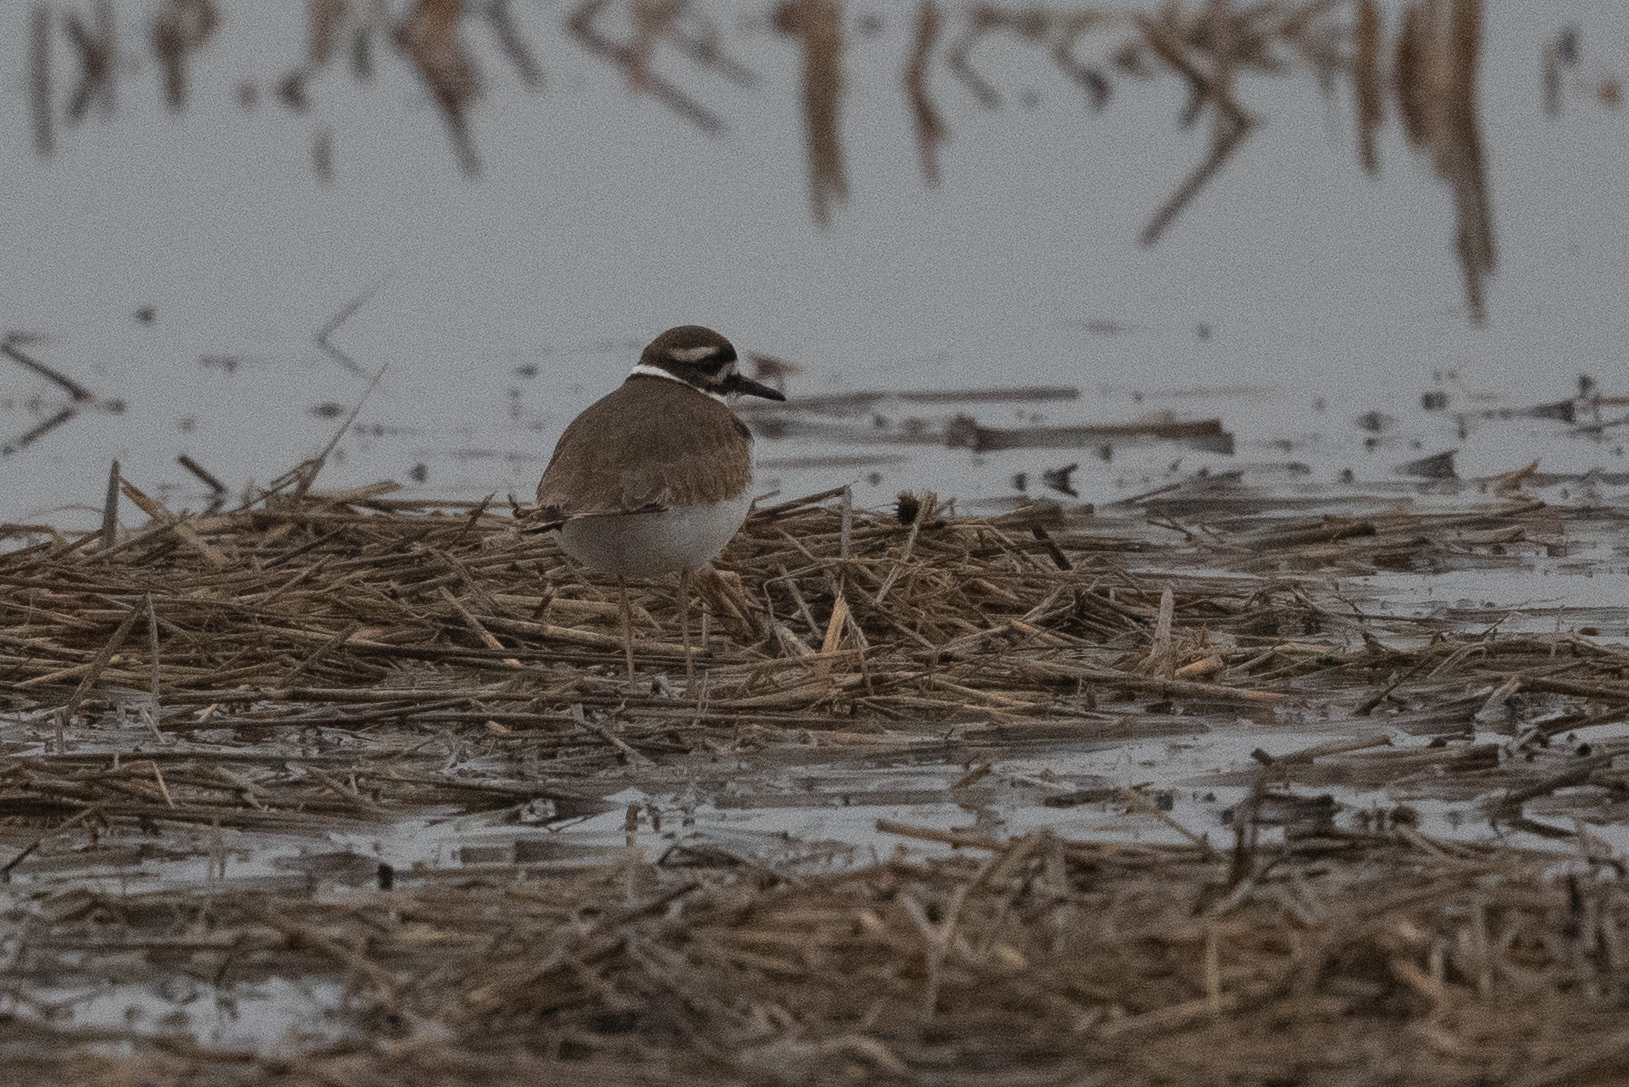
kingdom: Animalia
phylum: Chordata
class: Aves
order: Charadriiformes
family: Charadriidae
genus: Charadrius
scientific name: Charadrius vociferus
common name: Killdeer
